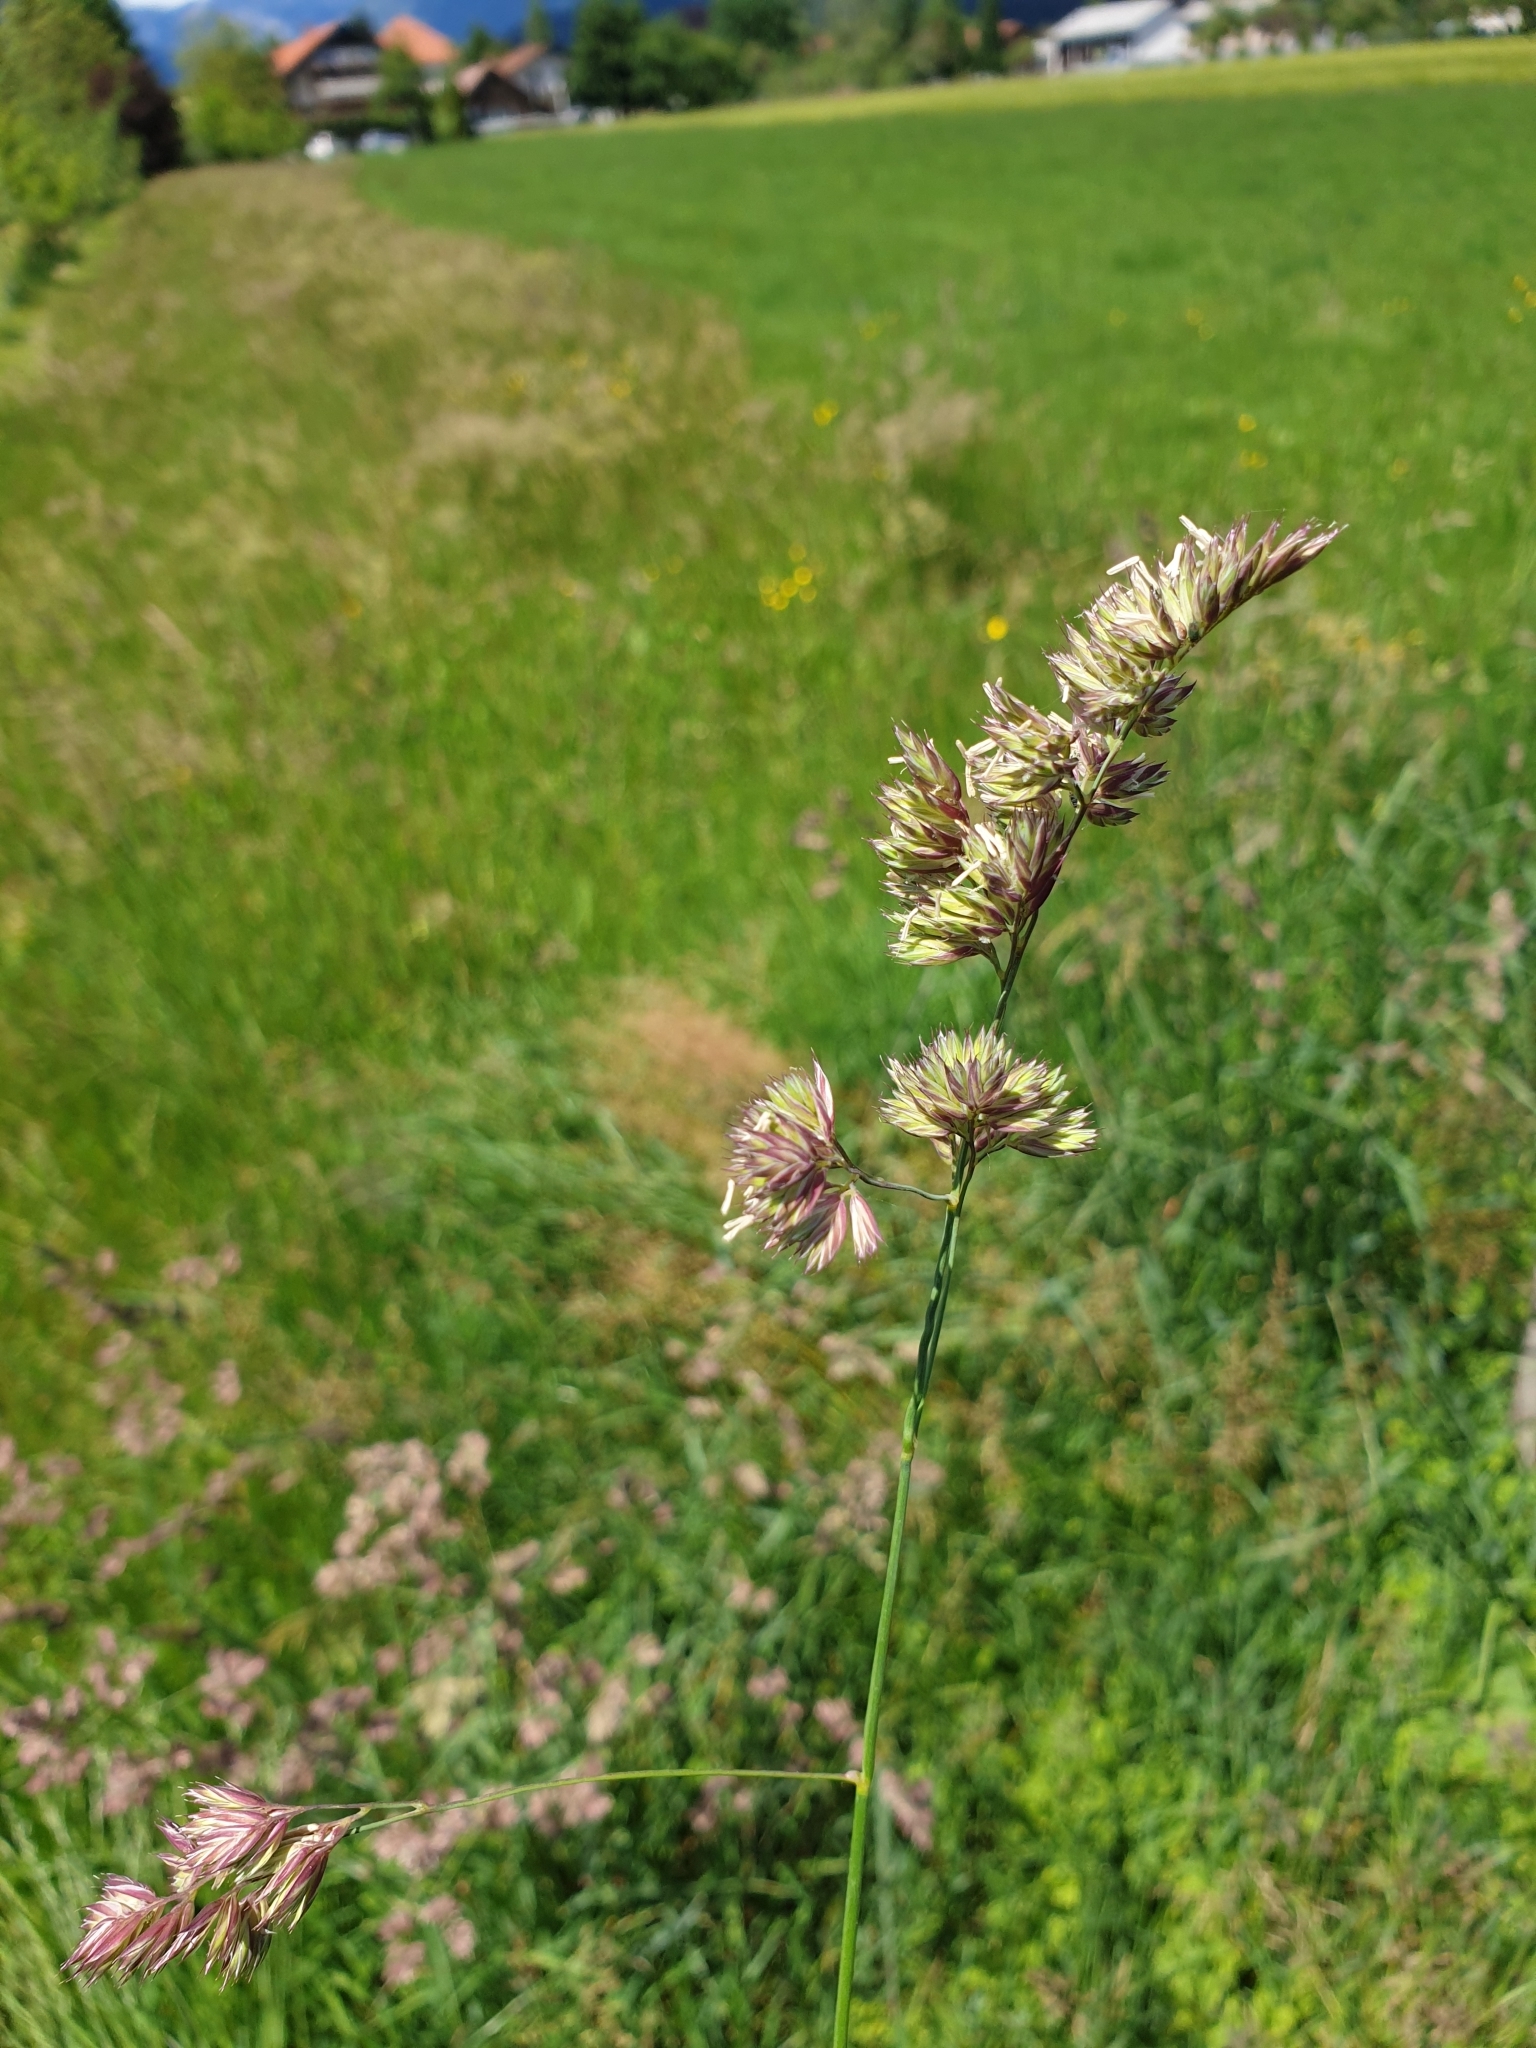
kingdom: Plantae
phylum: Tracheophyta
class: Liliopsida
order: Poales
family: Poaceae
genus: Dactylis
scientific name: Dactylis glomerata
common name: Orchardgrass
